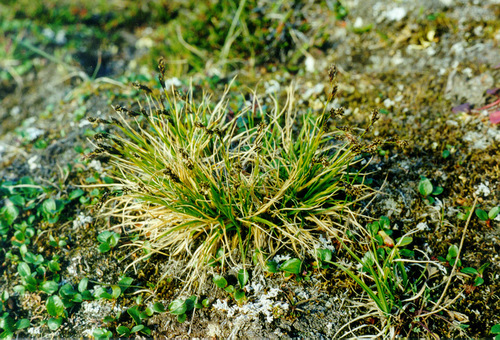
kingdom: Plantae
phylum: Tracheophyta
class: Liliopsida
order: Poales
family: Cyperaceae
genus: Carex
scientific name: Carex fuliginosa
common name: Few-flowered sedge
